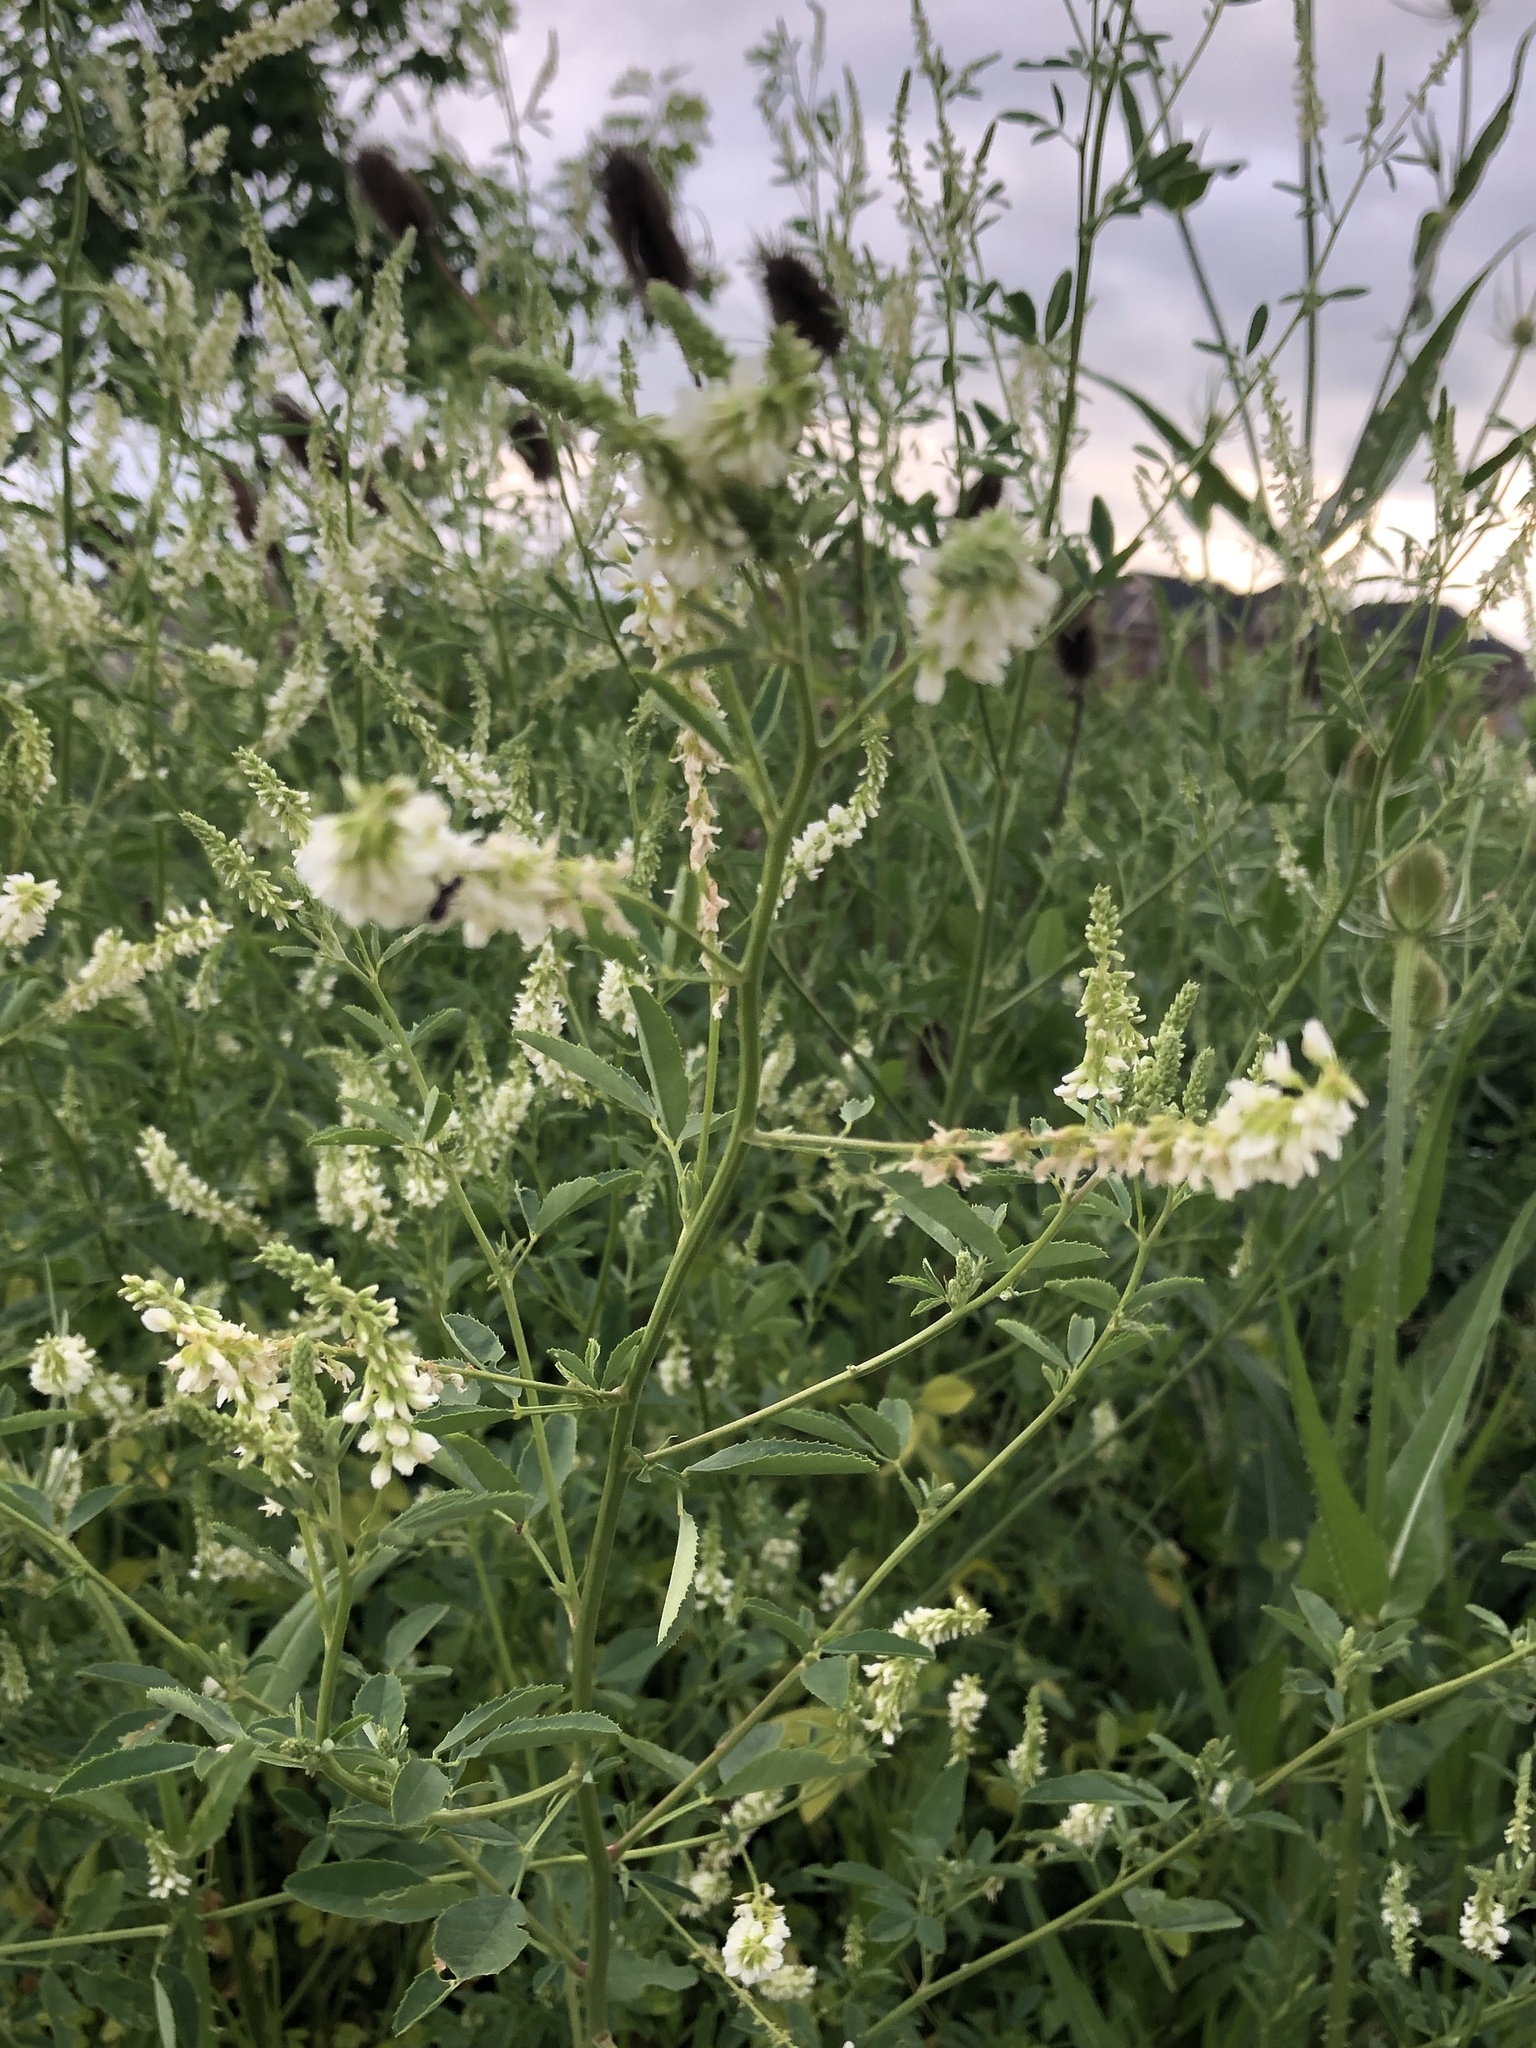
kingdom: Plantae
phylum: Tracheophyta
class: Magnoliopsida
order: Fabales
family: Fabaceae
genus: Melilotus
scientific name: Melilotus albus
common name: White melilot
